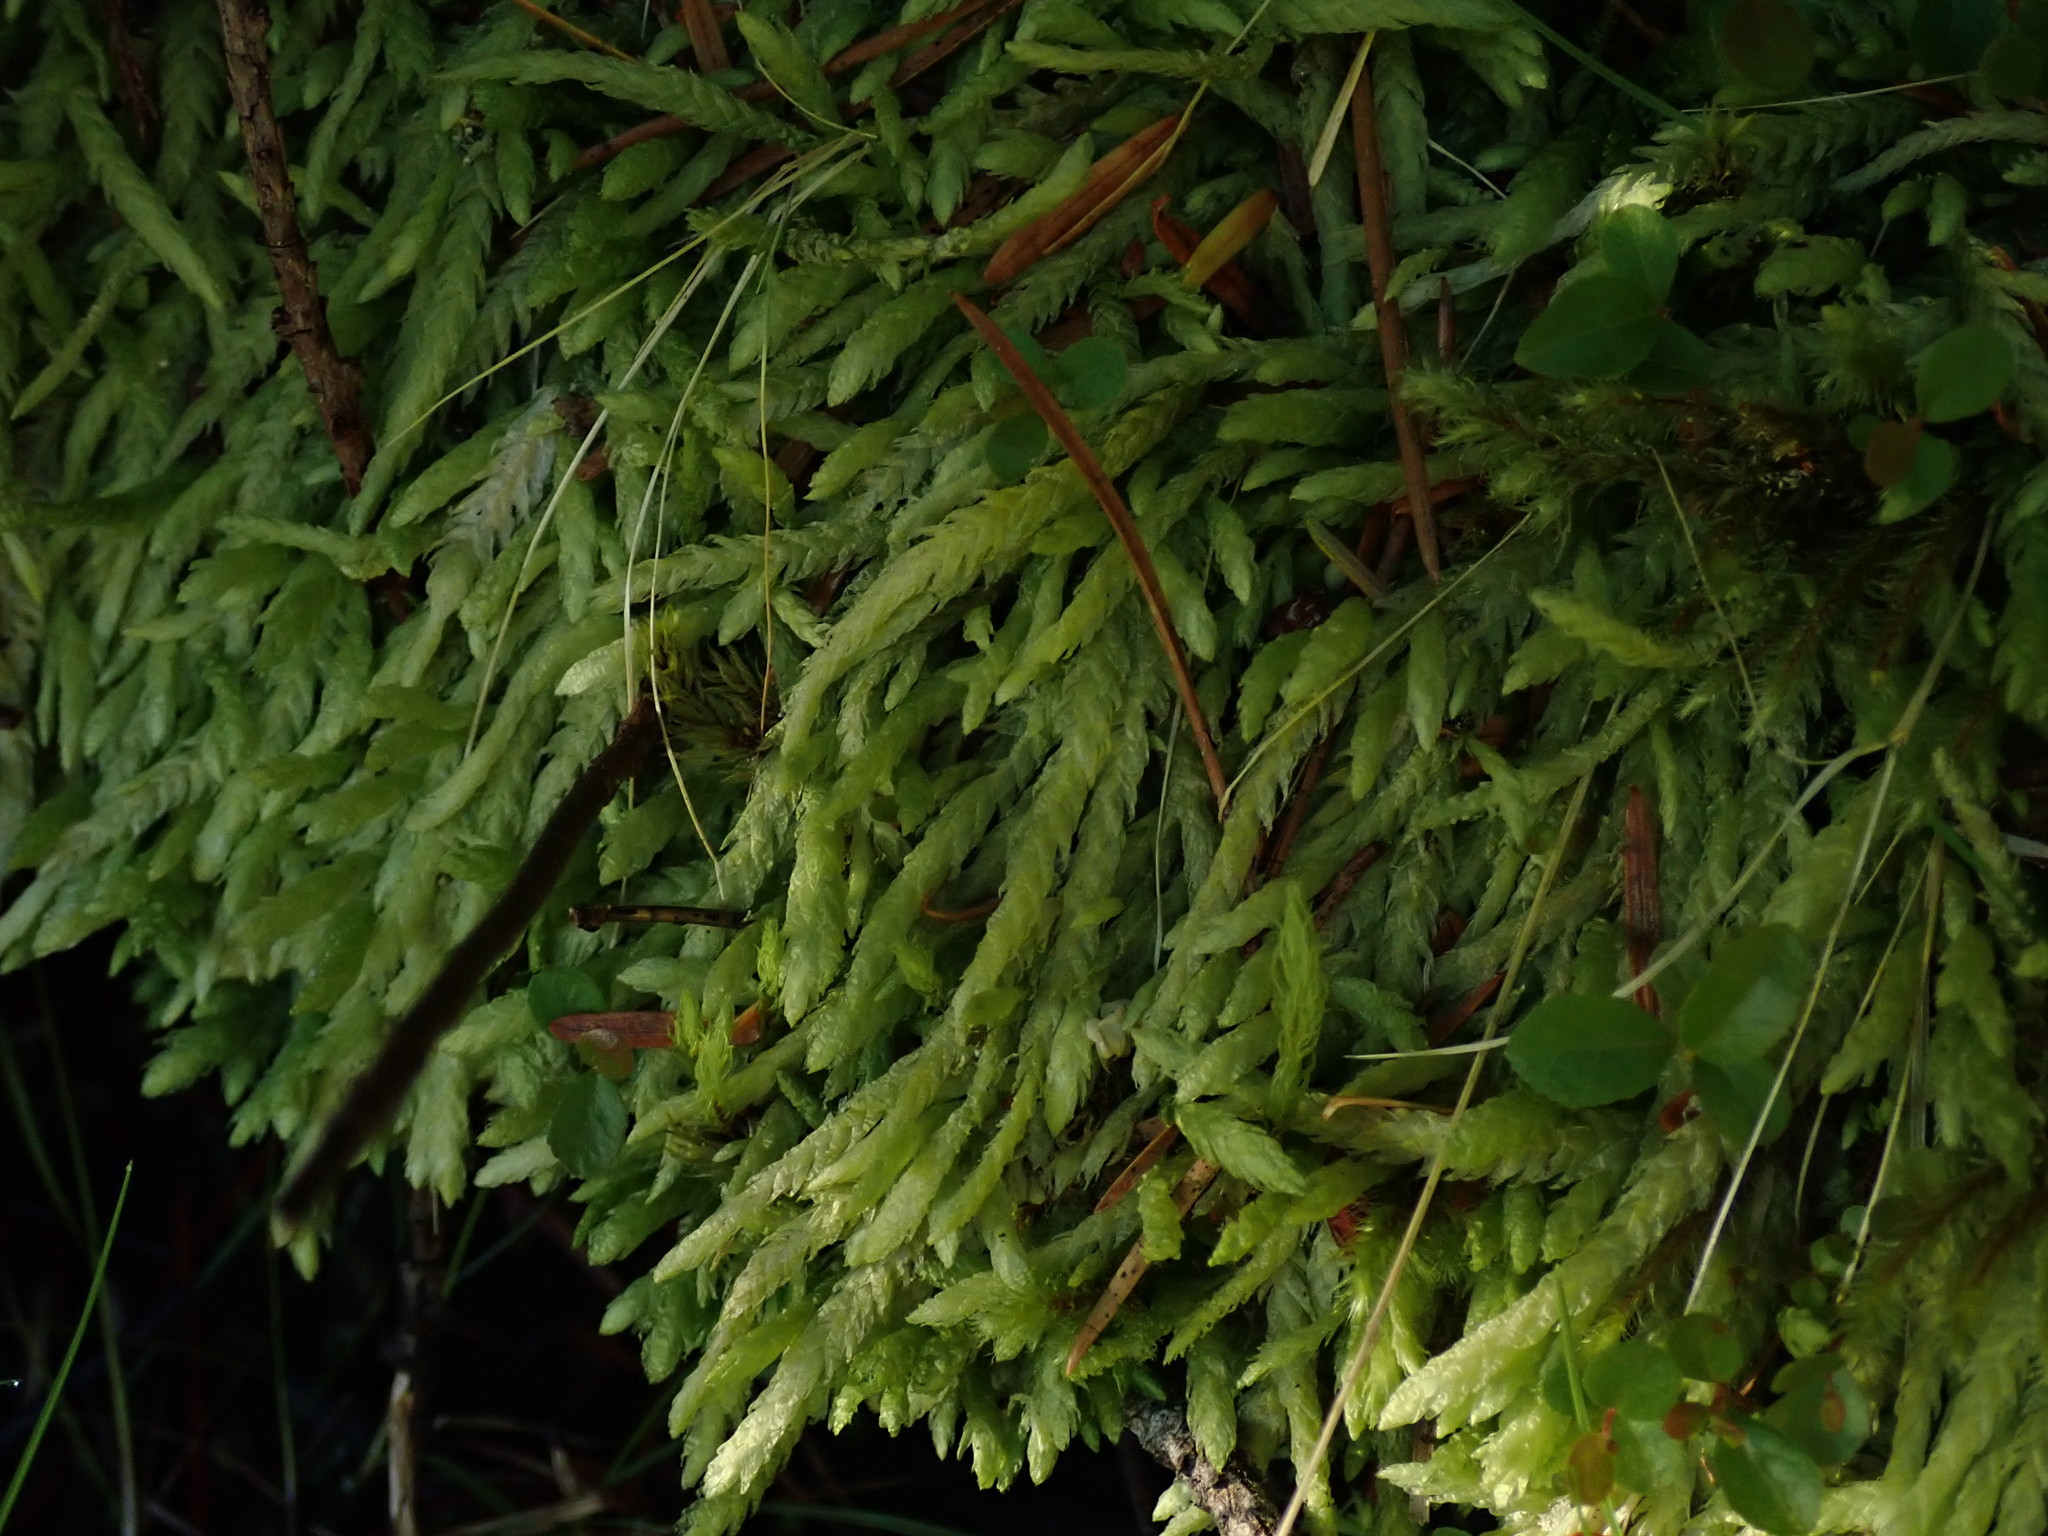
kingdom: Plantae
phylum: Bryophyta
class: Bryopsida
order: Hypnales
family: Plagiotheciaceae
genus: Plagiothecium
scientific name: Plagiothecium undulatum
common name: Waved silk-moss
